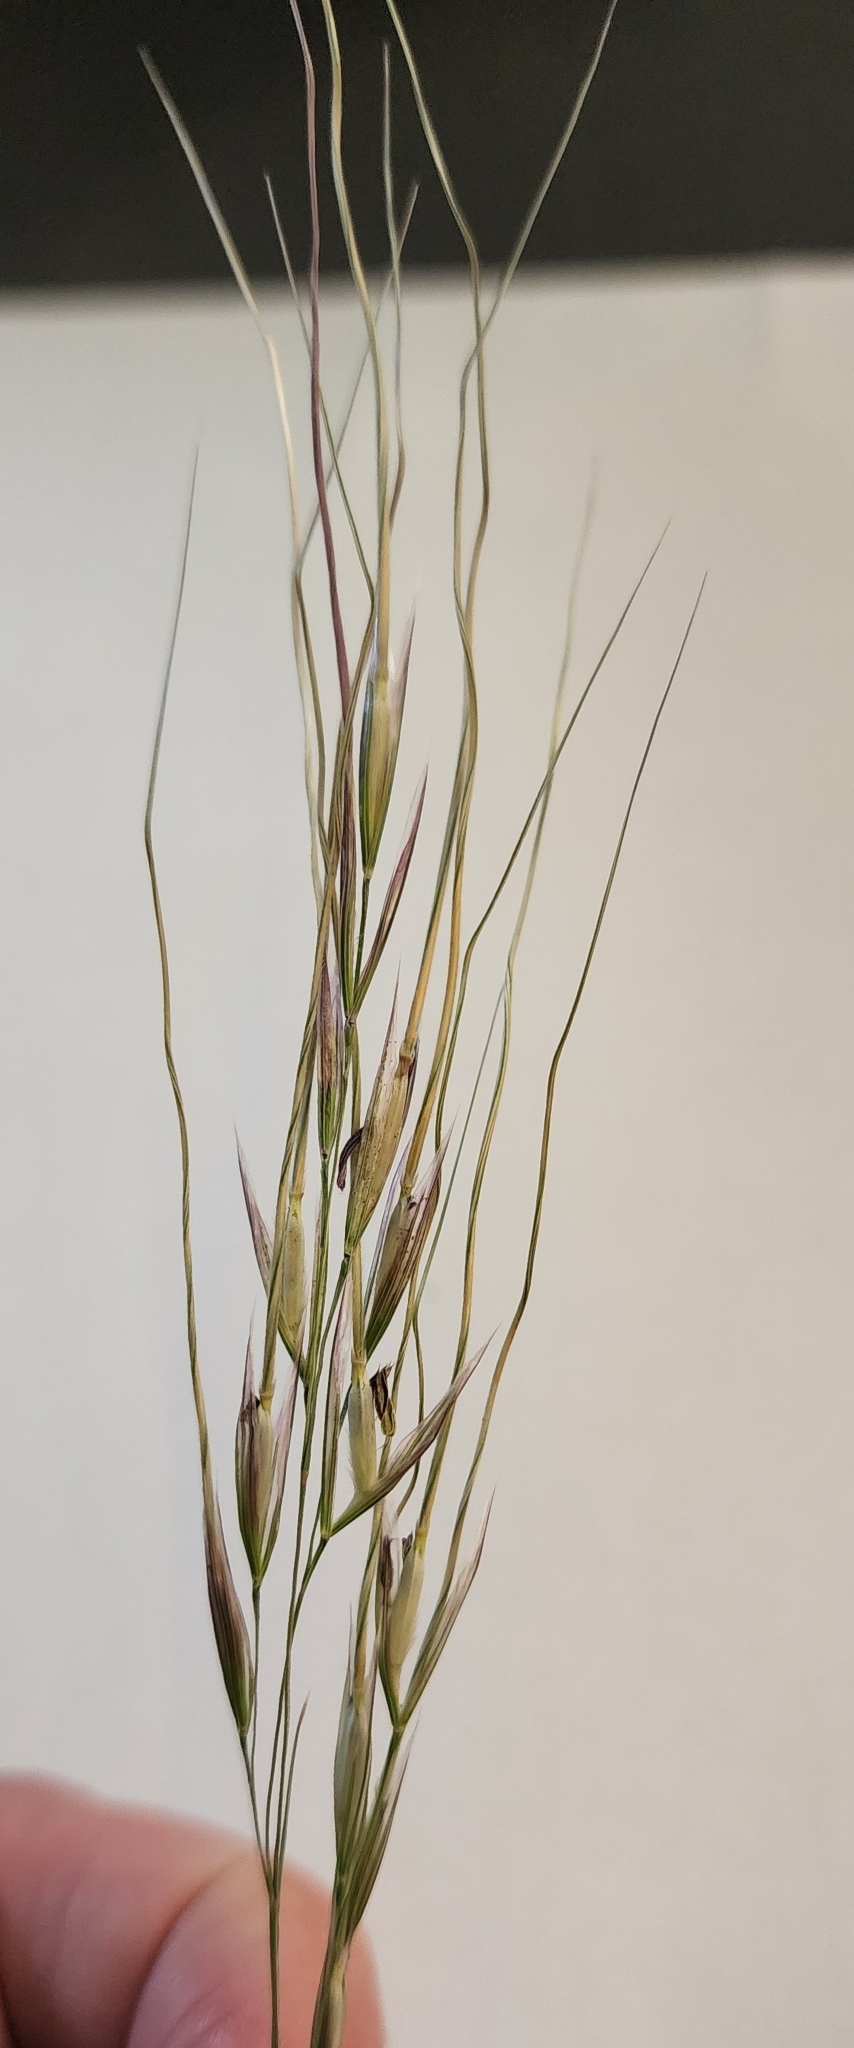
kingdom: Plantae
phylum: Tracheophyta
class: Liliopsida
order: Poales
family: Poaceae
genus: Nassella
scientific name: Nassella leucotricha
